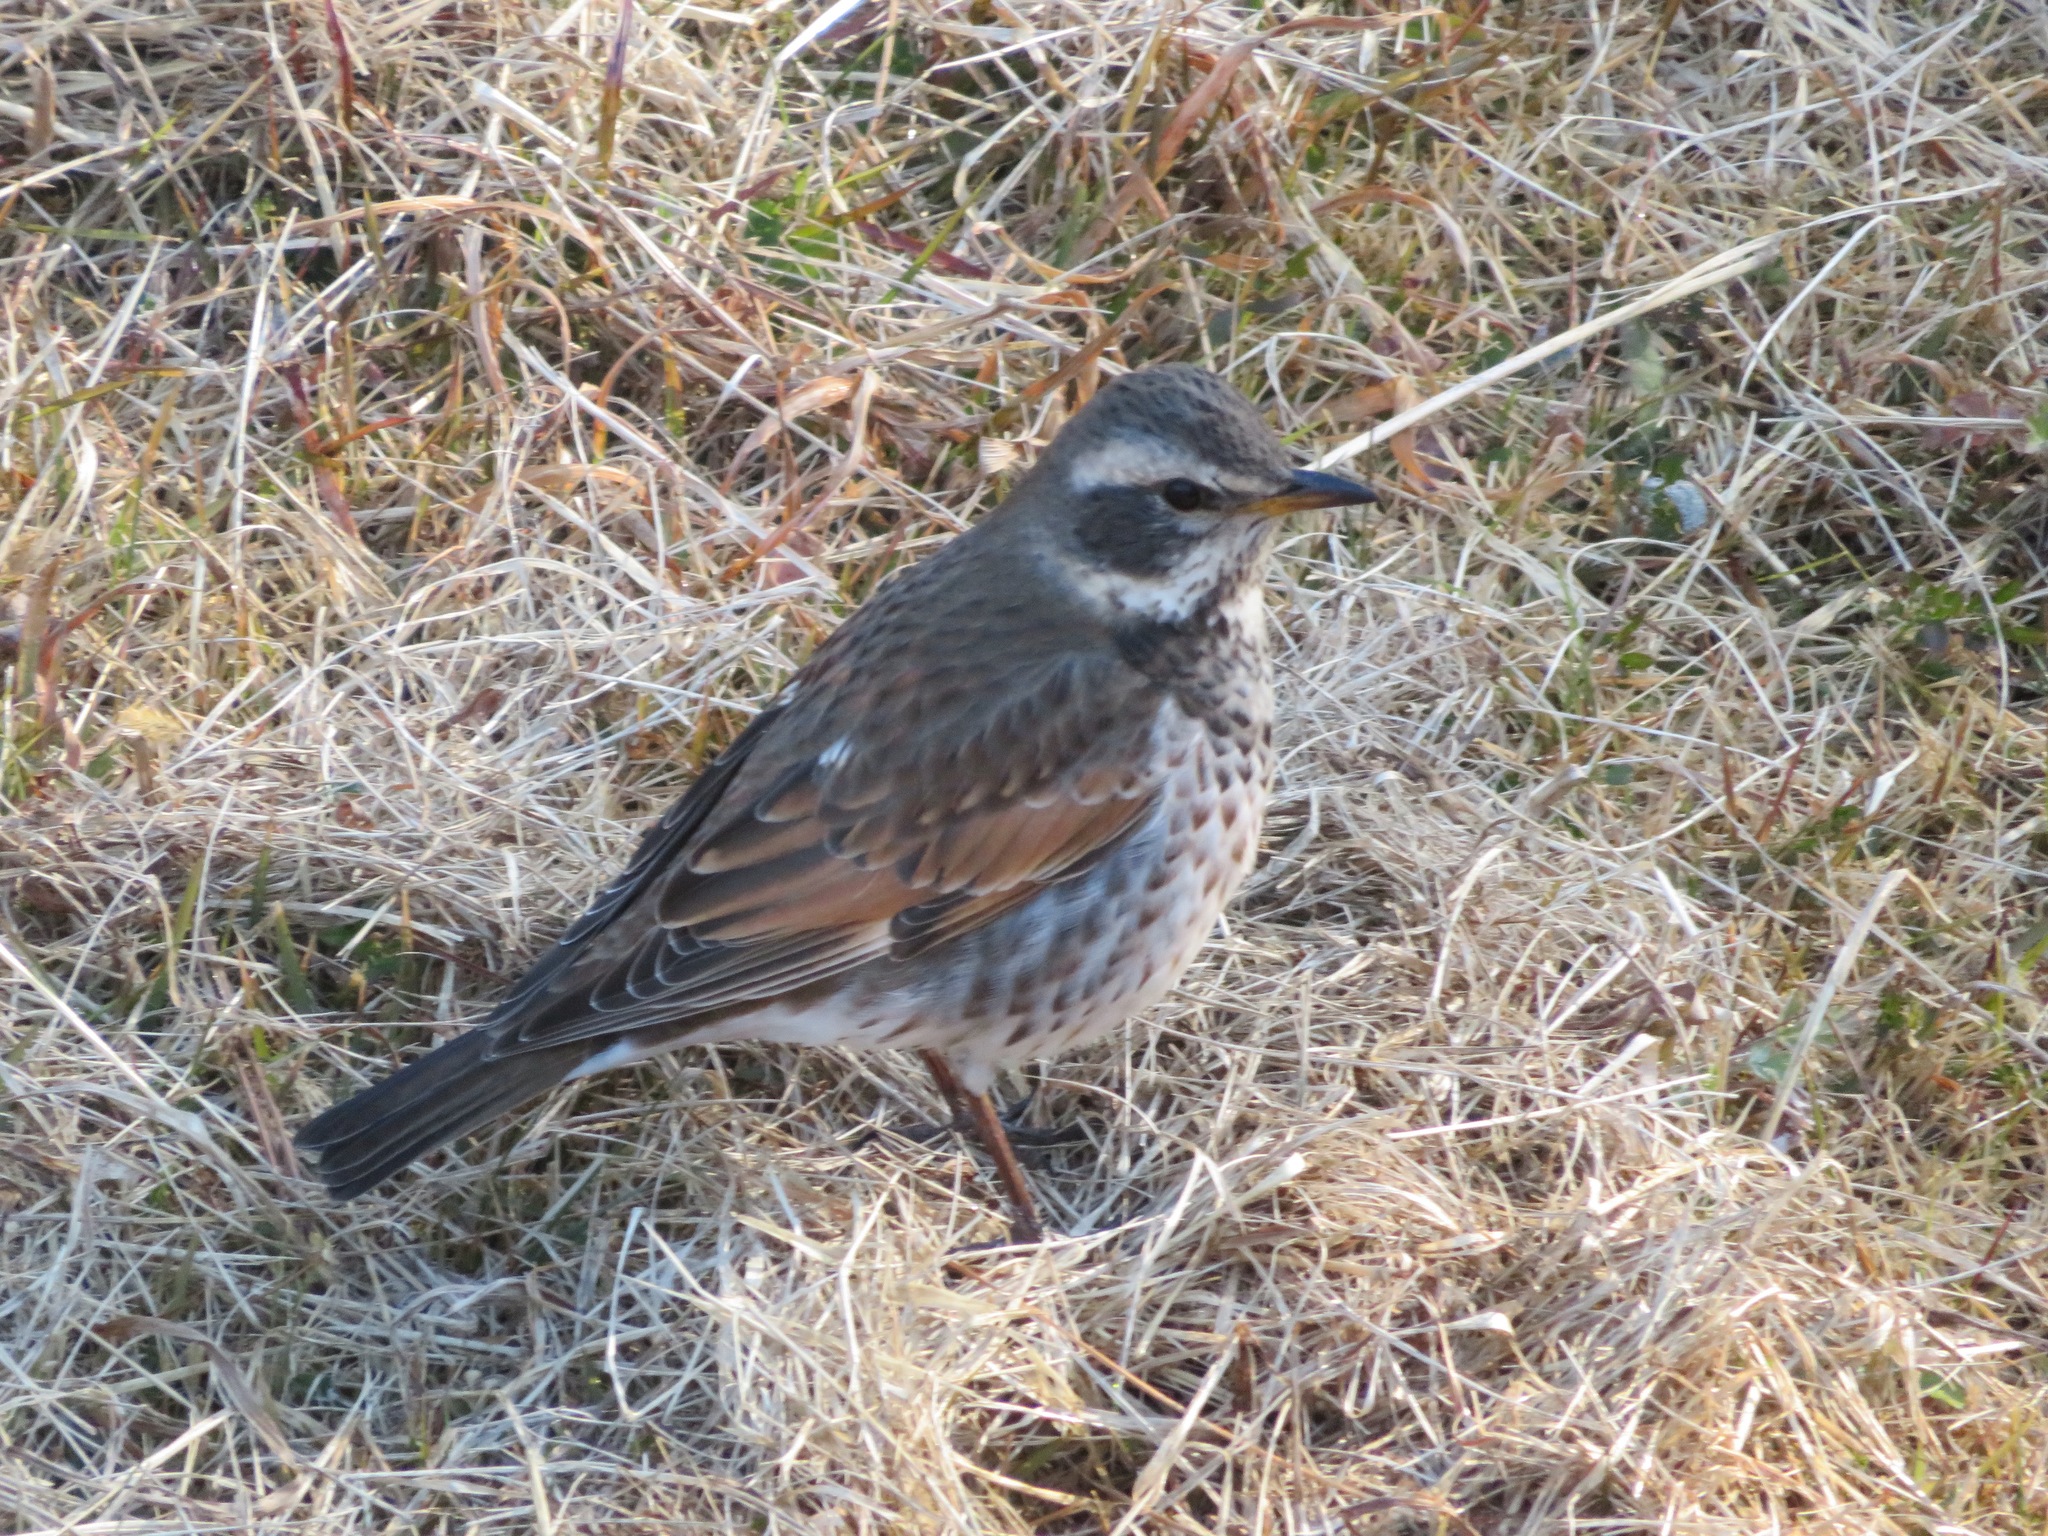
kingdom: Animalia
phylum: Chordata
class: Aves
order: Passeriformes
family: Turdidae
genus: Turdus
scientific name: Turdus eunomus
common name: Dusky thrush
